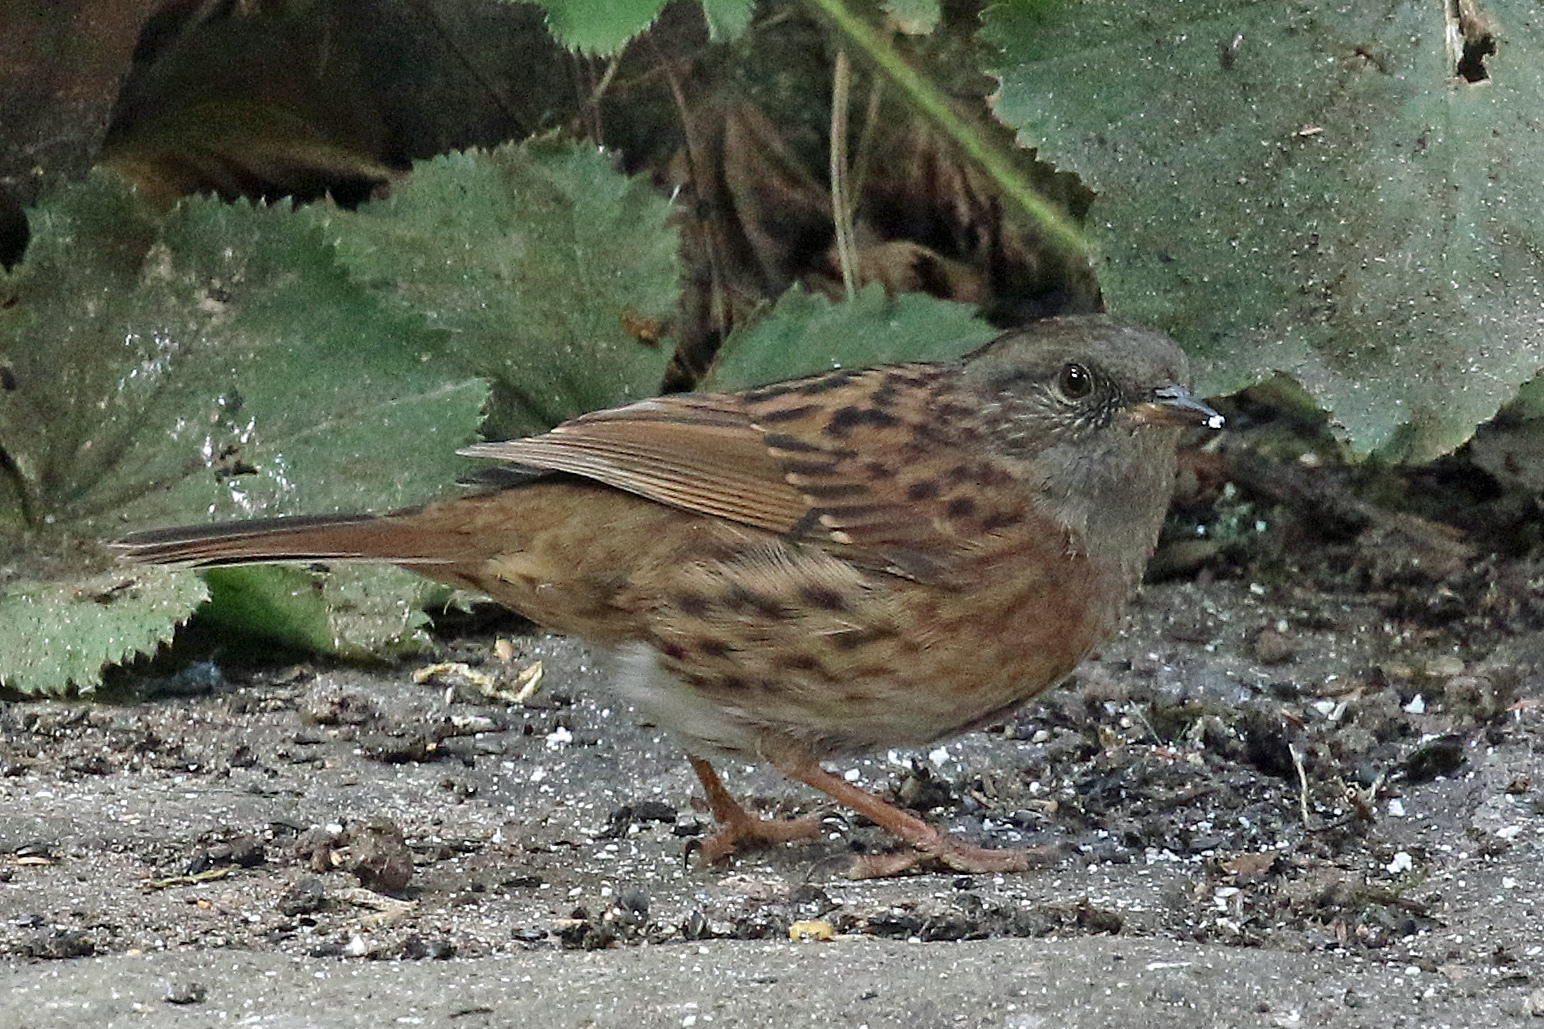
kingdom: Animalia
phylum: Chordata
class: Aves
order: Passeriformes
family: Prunellidae
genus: Prunella
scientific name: Prunella modularis
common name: Dunnock
